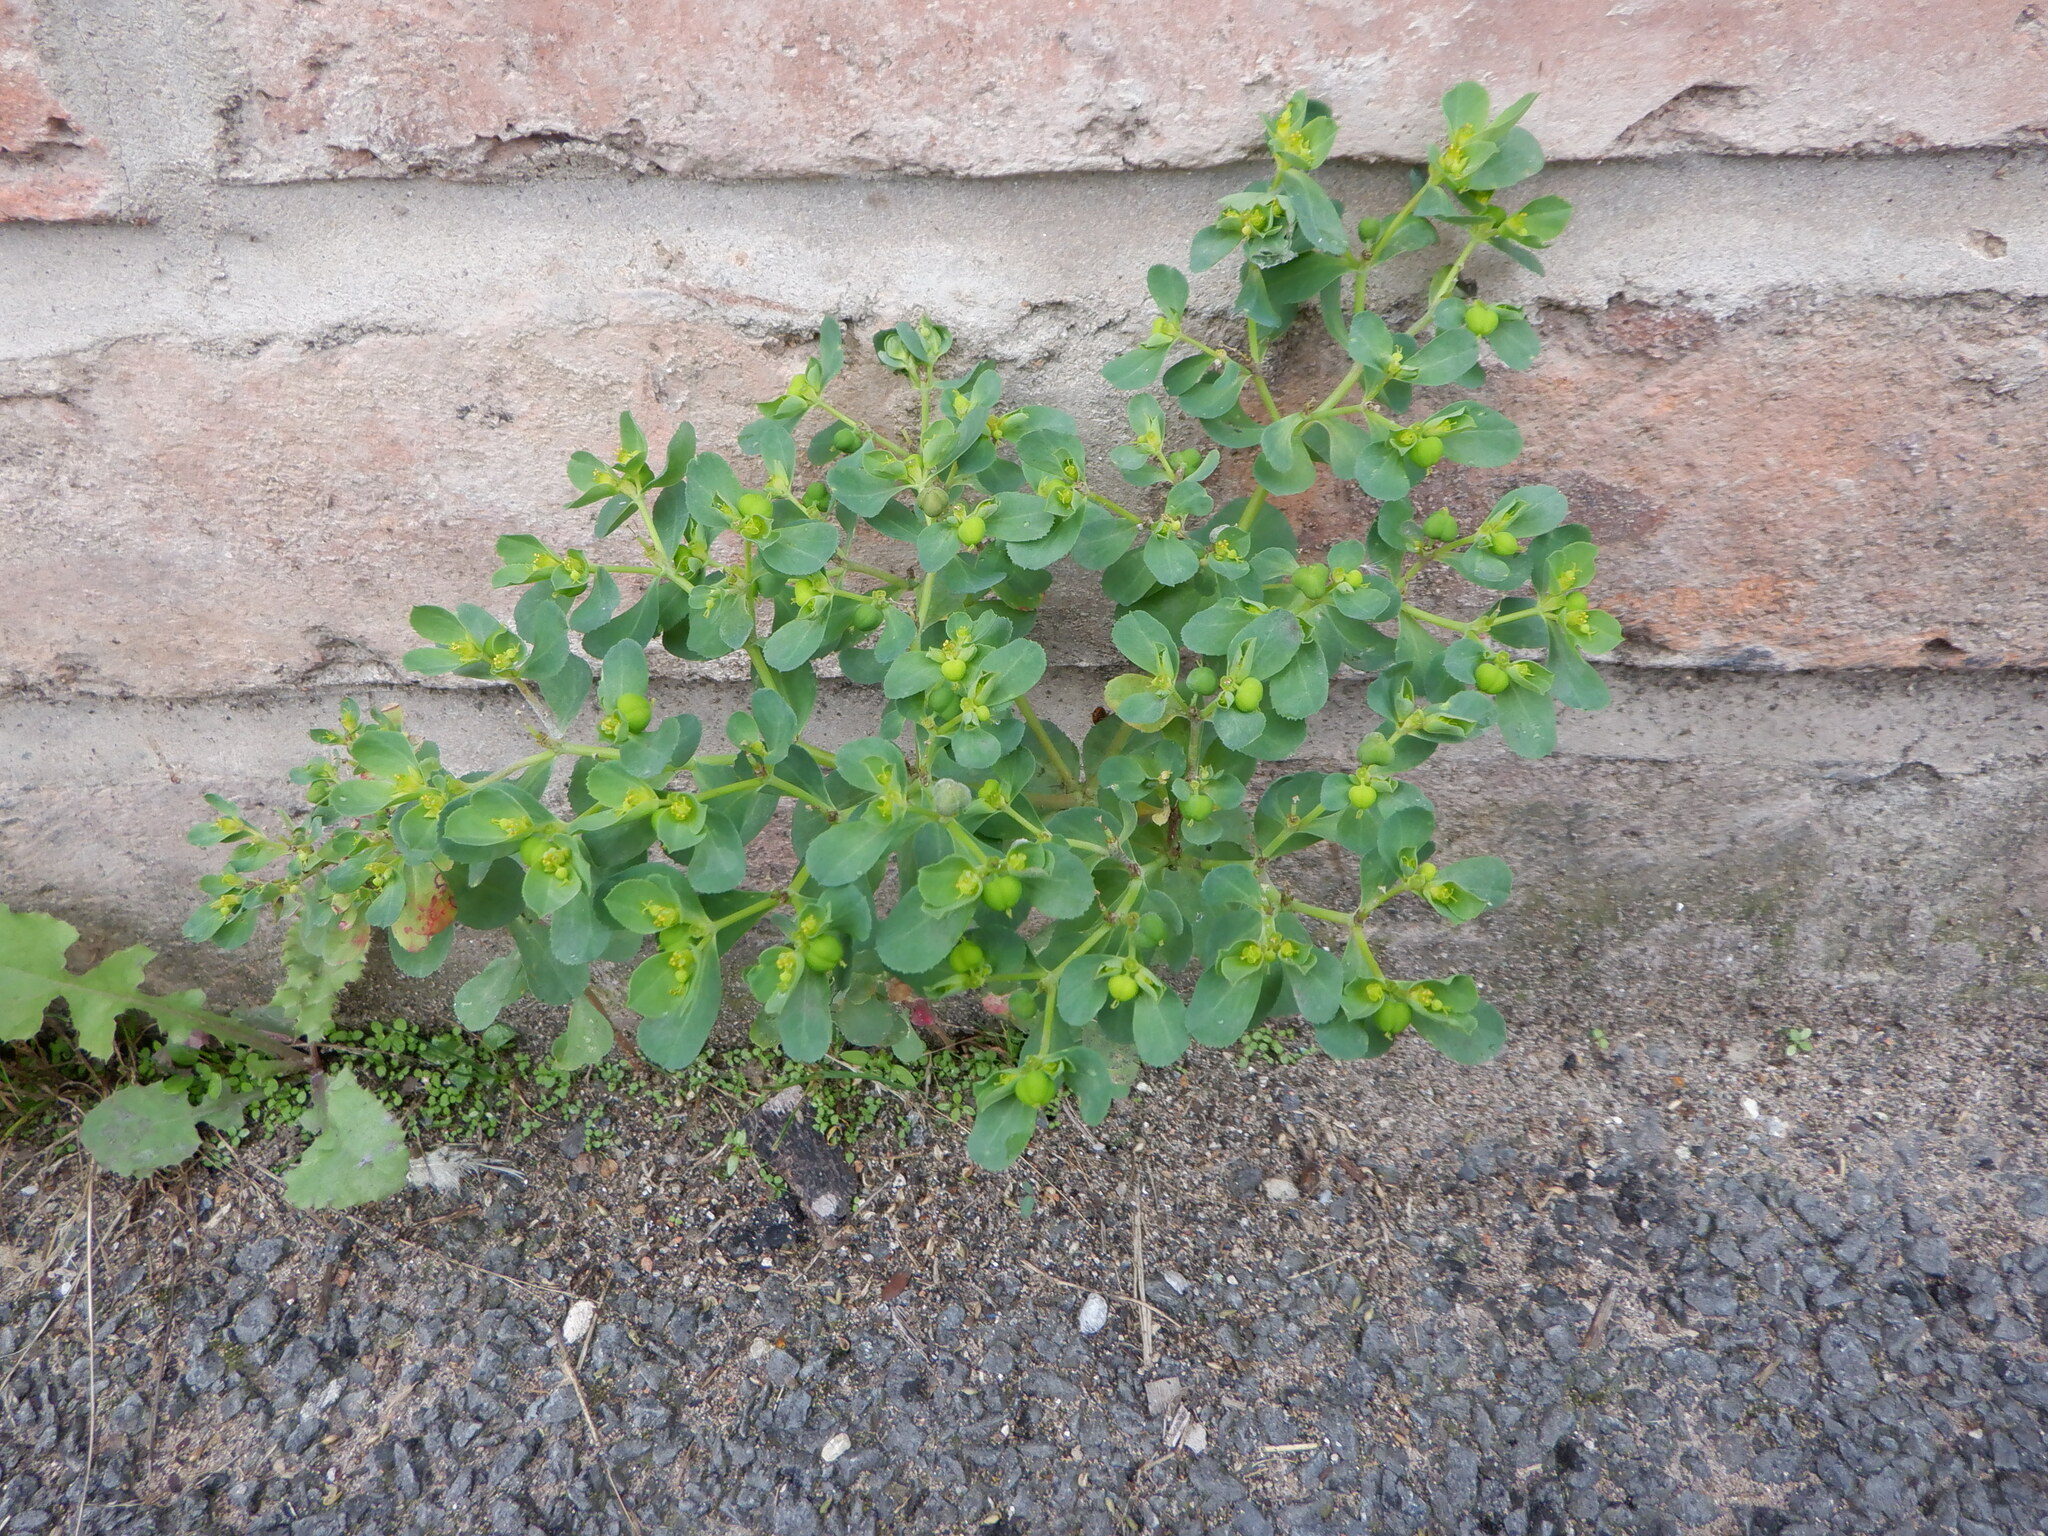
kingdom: Plantae
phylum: Tracheophyta
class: Magnoliopsida
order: Malpighiales
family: Euphorbiaceae
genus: Euphorbia
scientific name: Euphorbia helioscopia
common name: Sun spurge
